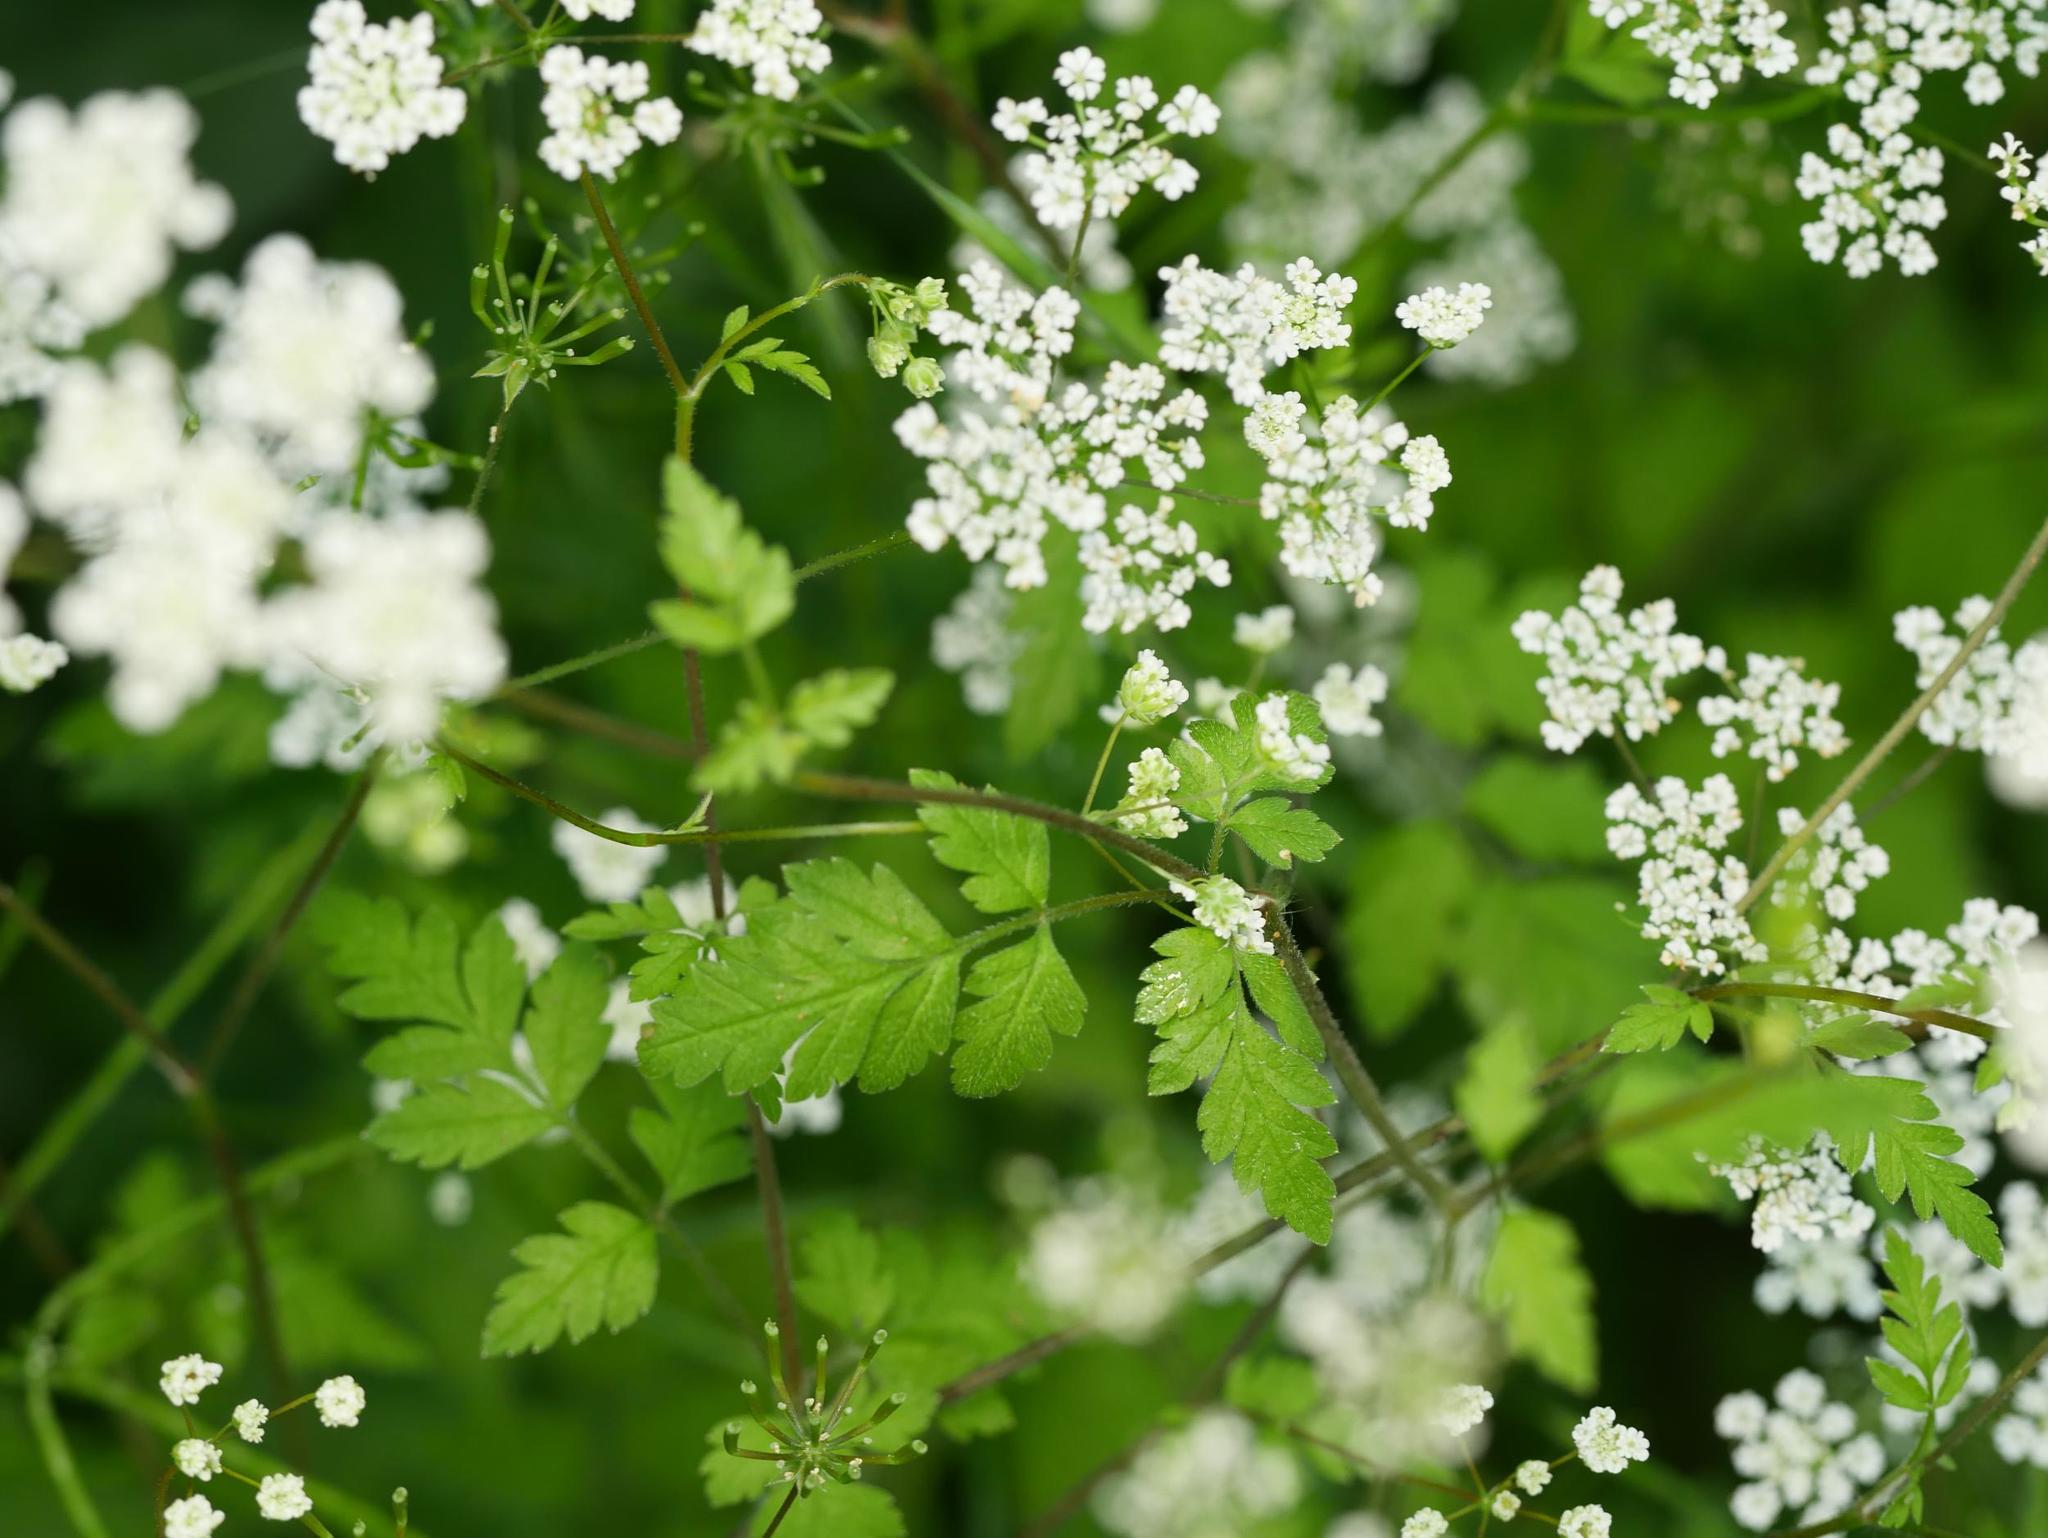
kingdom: Plantae
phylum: Tracheophyta
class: Magnoliopsida
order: Apiales
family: Apiaceae
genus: Chaerophyllum
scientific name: Chaerophyllum temulum
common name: Rough chervil
